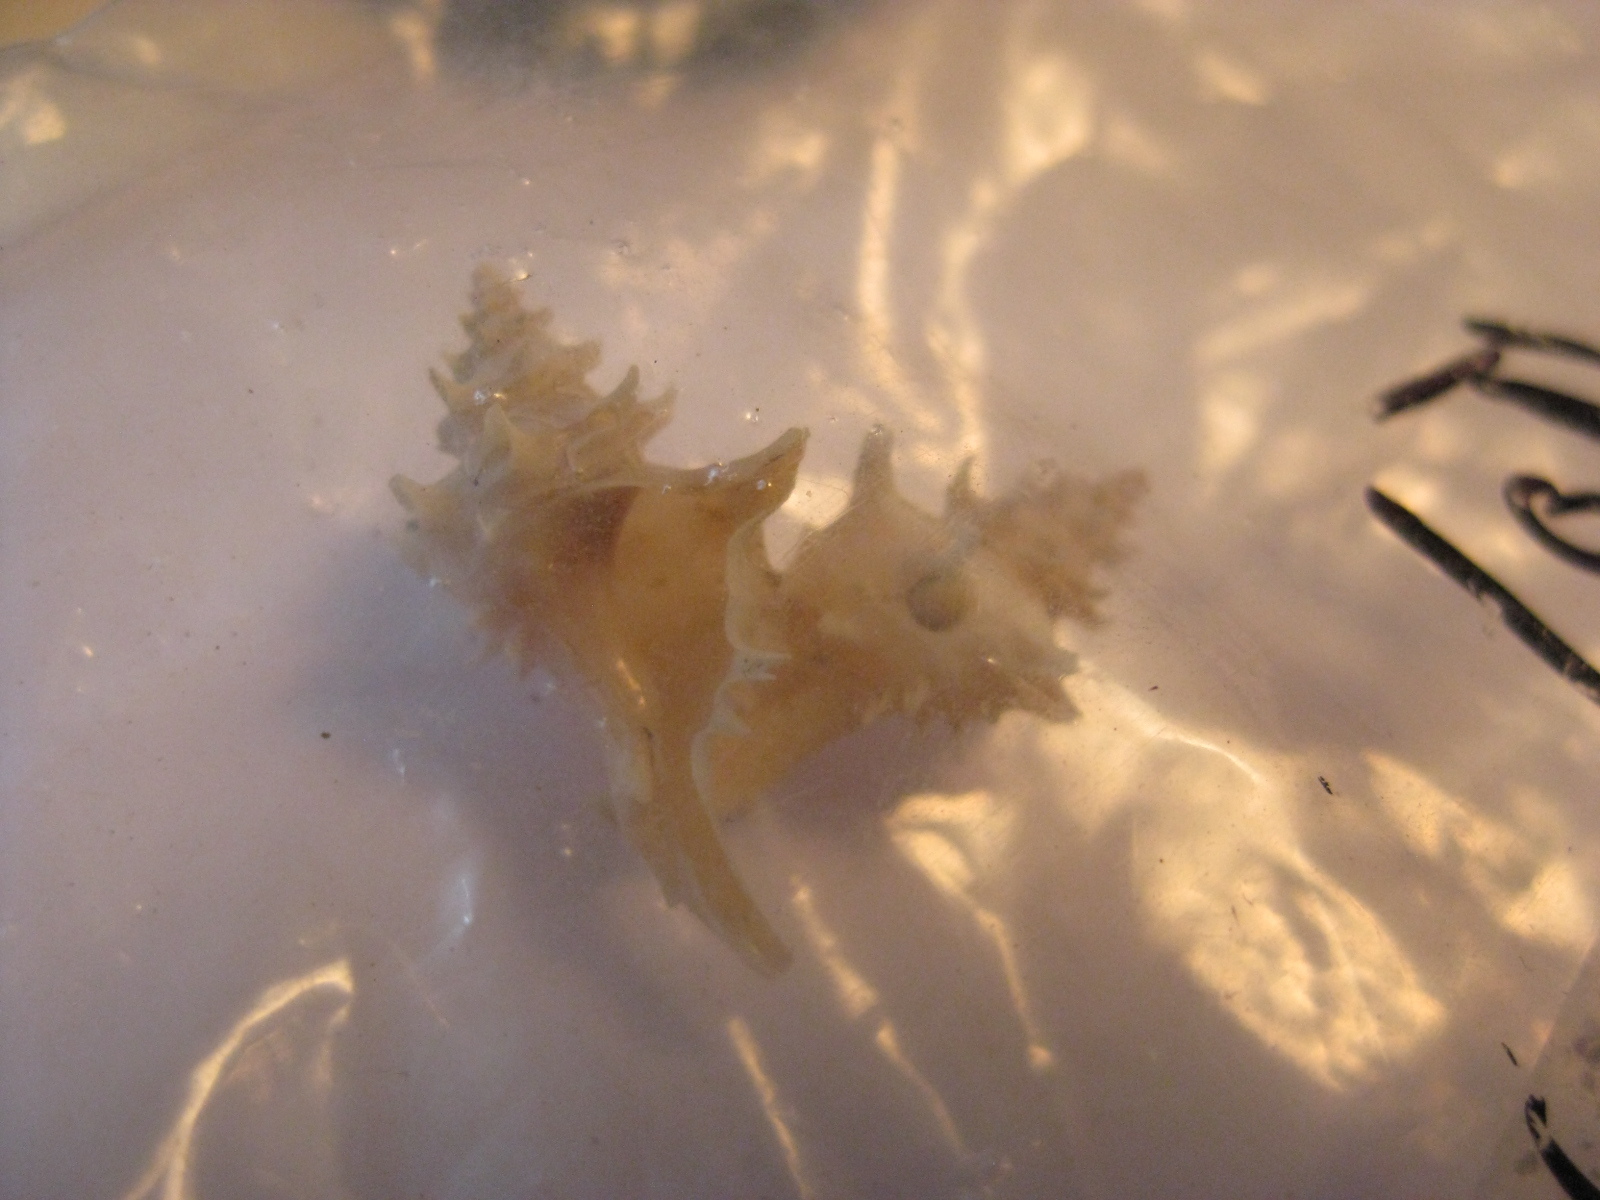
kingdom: Animalia
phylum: Mollusca
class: Gastropoda
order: Neogastropoda
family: Muricidae
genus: Poirieria
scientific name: Poirieria zelandica
